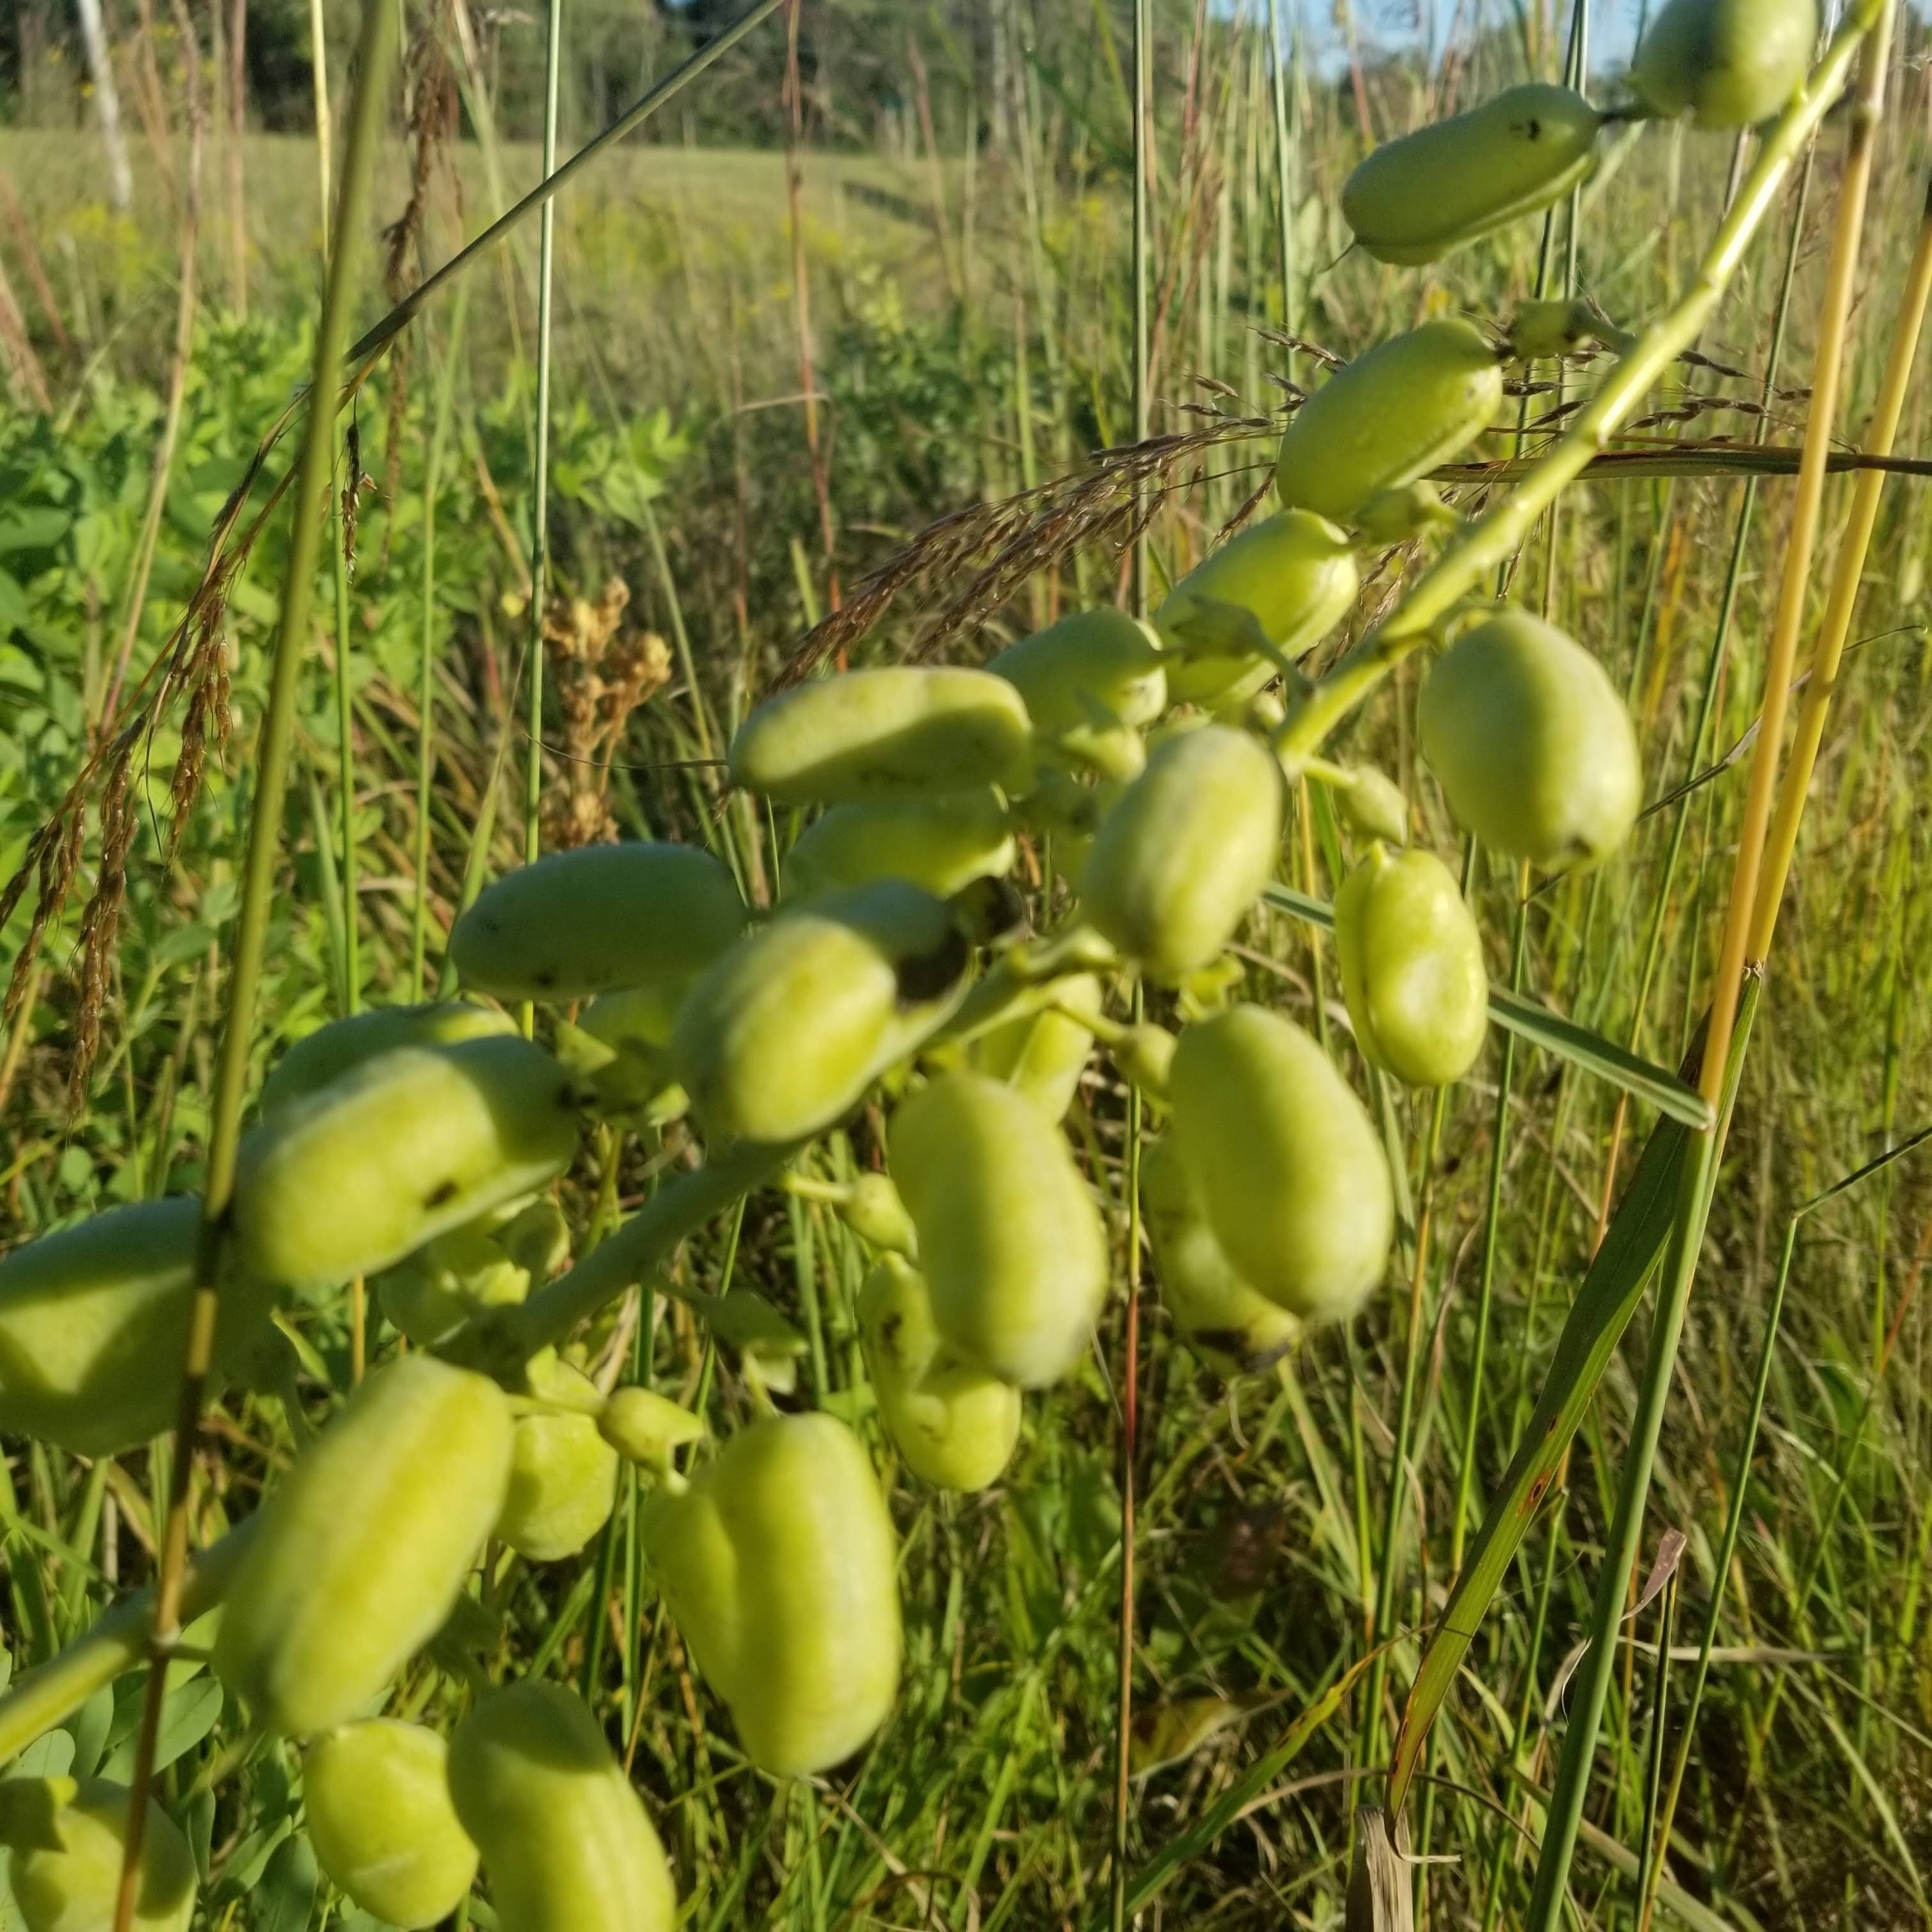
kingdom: Plantae
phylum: Tracheophyta
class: Magnoliopsida
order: Fabales
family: Fabaceae
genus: Baptisia
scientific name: Baptisia alba
